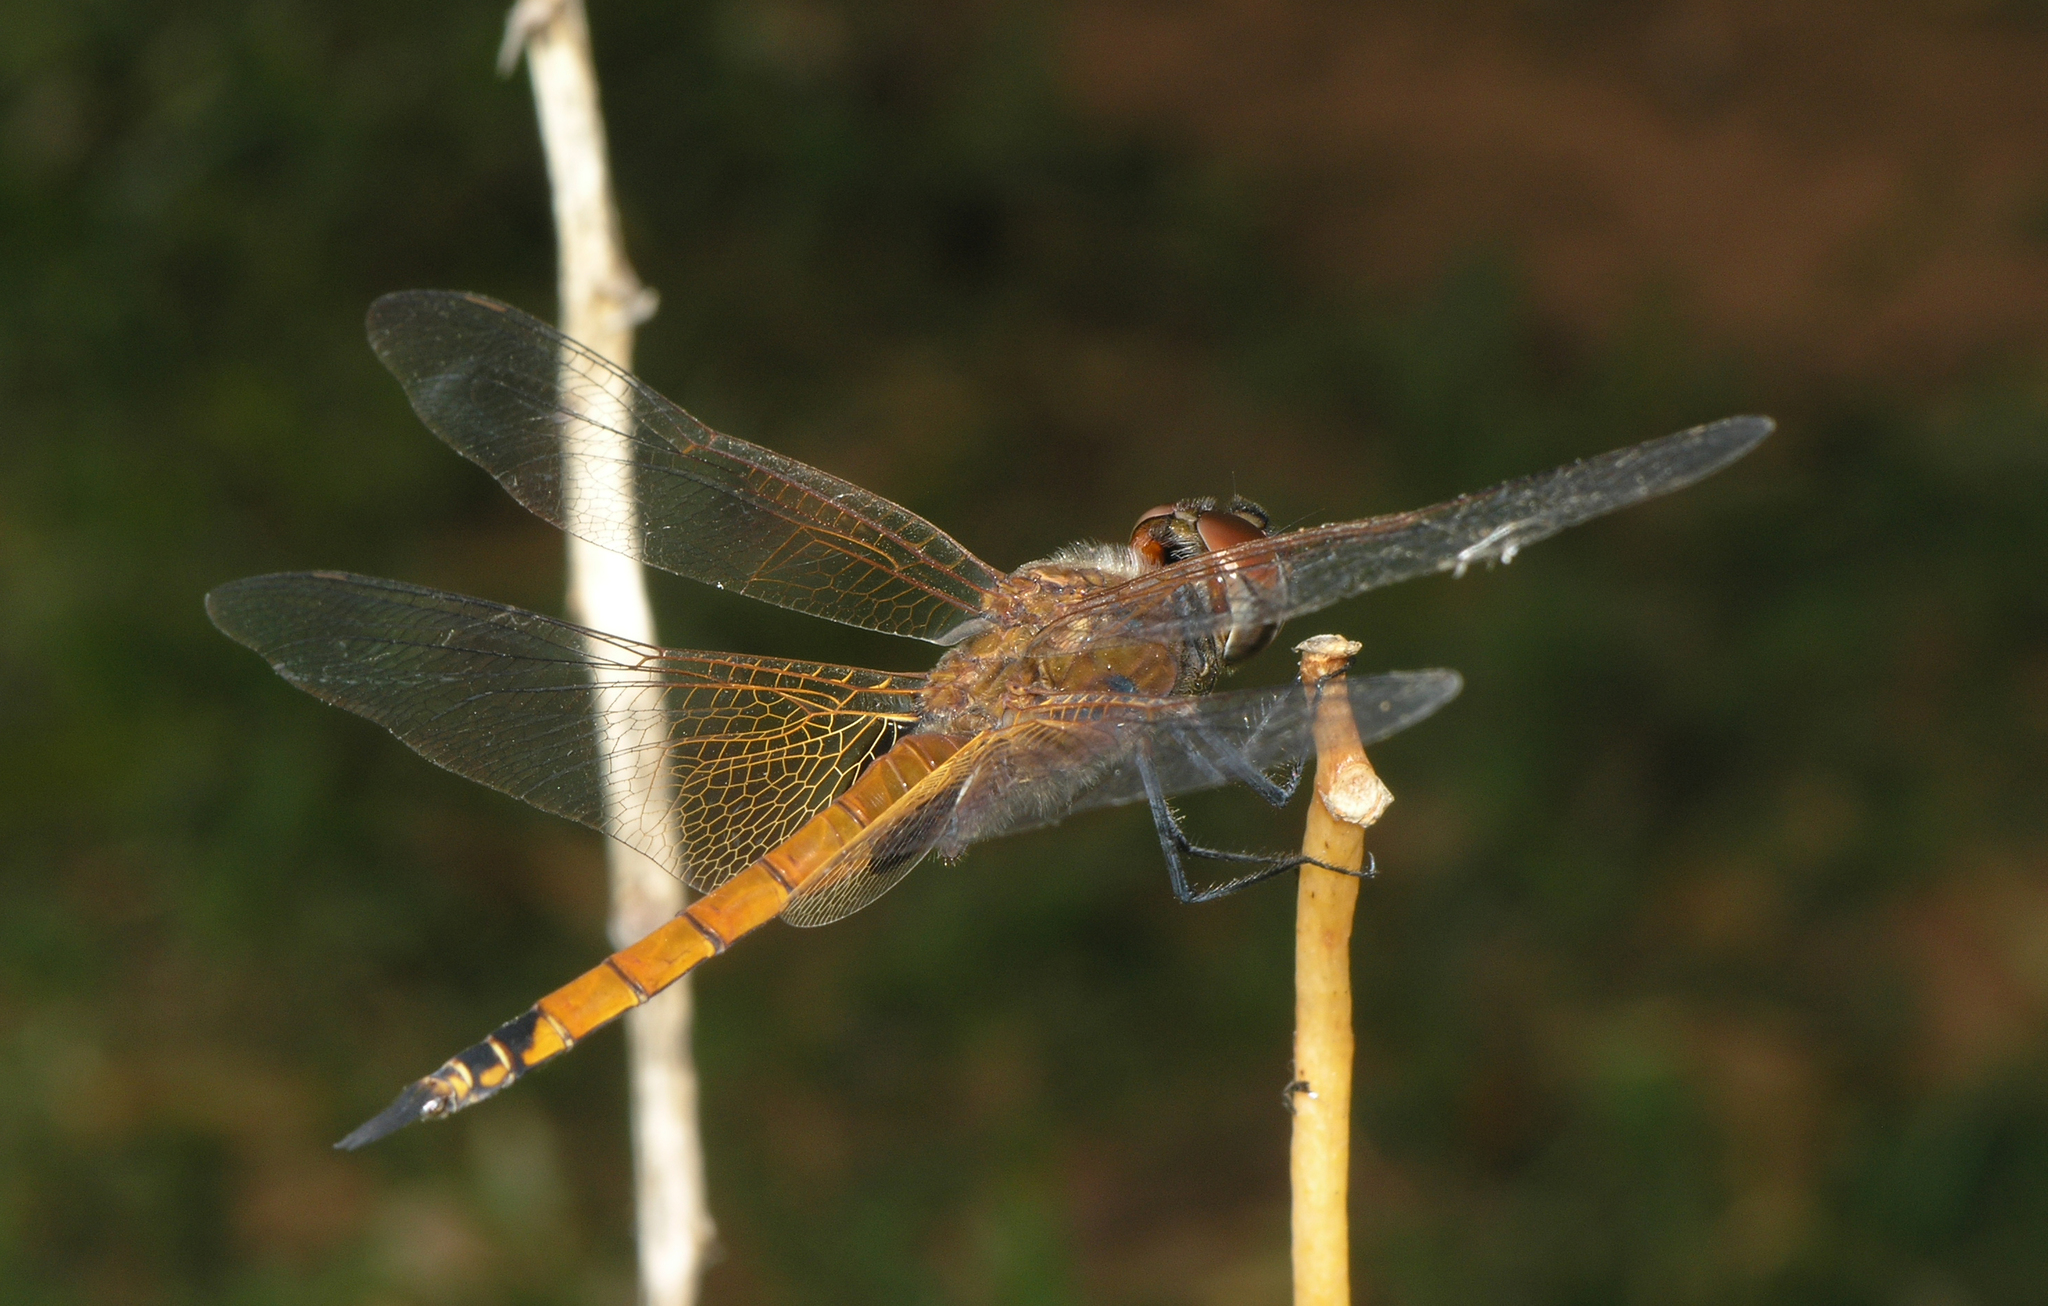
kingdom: Animalia
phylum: Arthropoda
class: Insecta
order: Odonata
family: Libellulidae
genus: Tramea
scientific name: Tramea transmarina
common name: Red glider dragonfly
